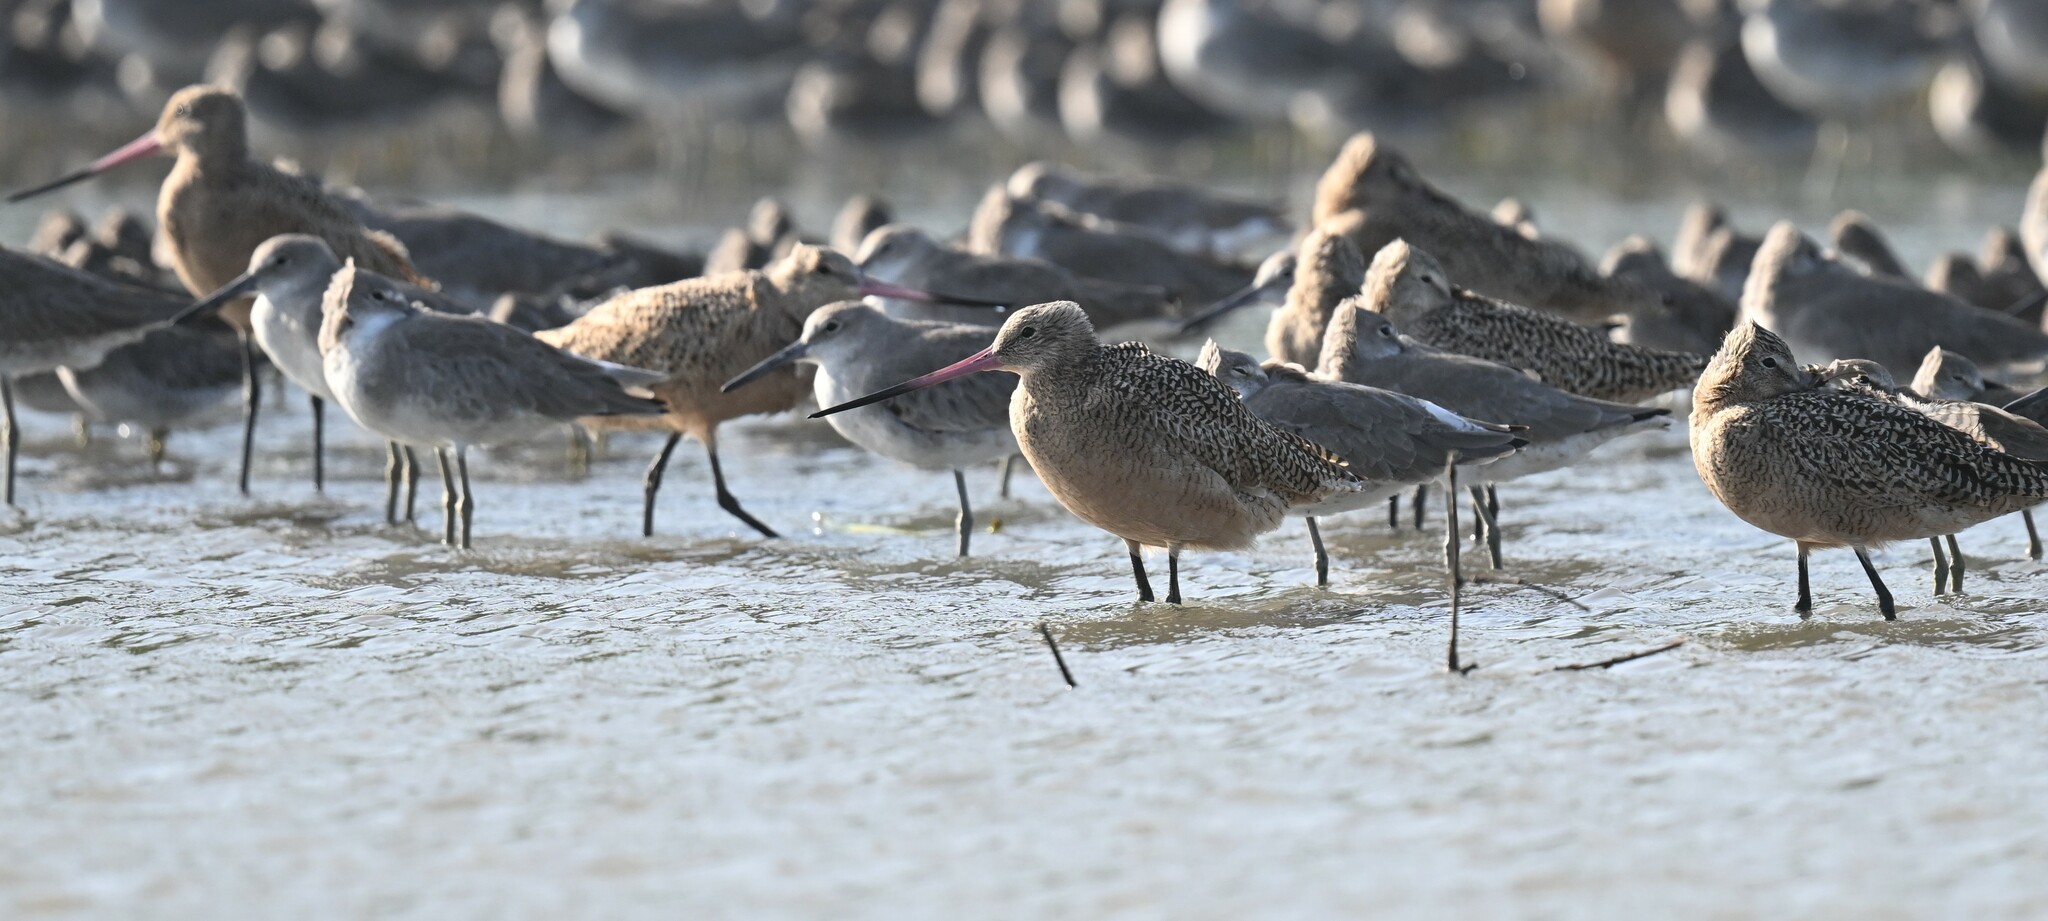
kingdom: Animalia
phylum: Chordata
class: Aves
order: Charadriiformes
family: Scolopacidae
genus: Limosa
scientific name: Limosa fedoa
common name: Marbled godwit
